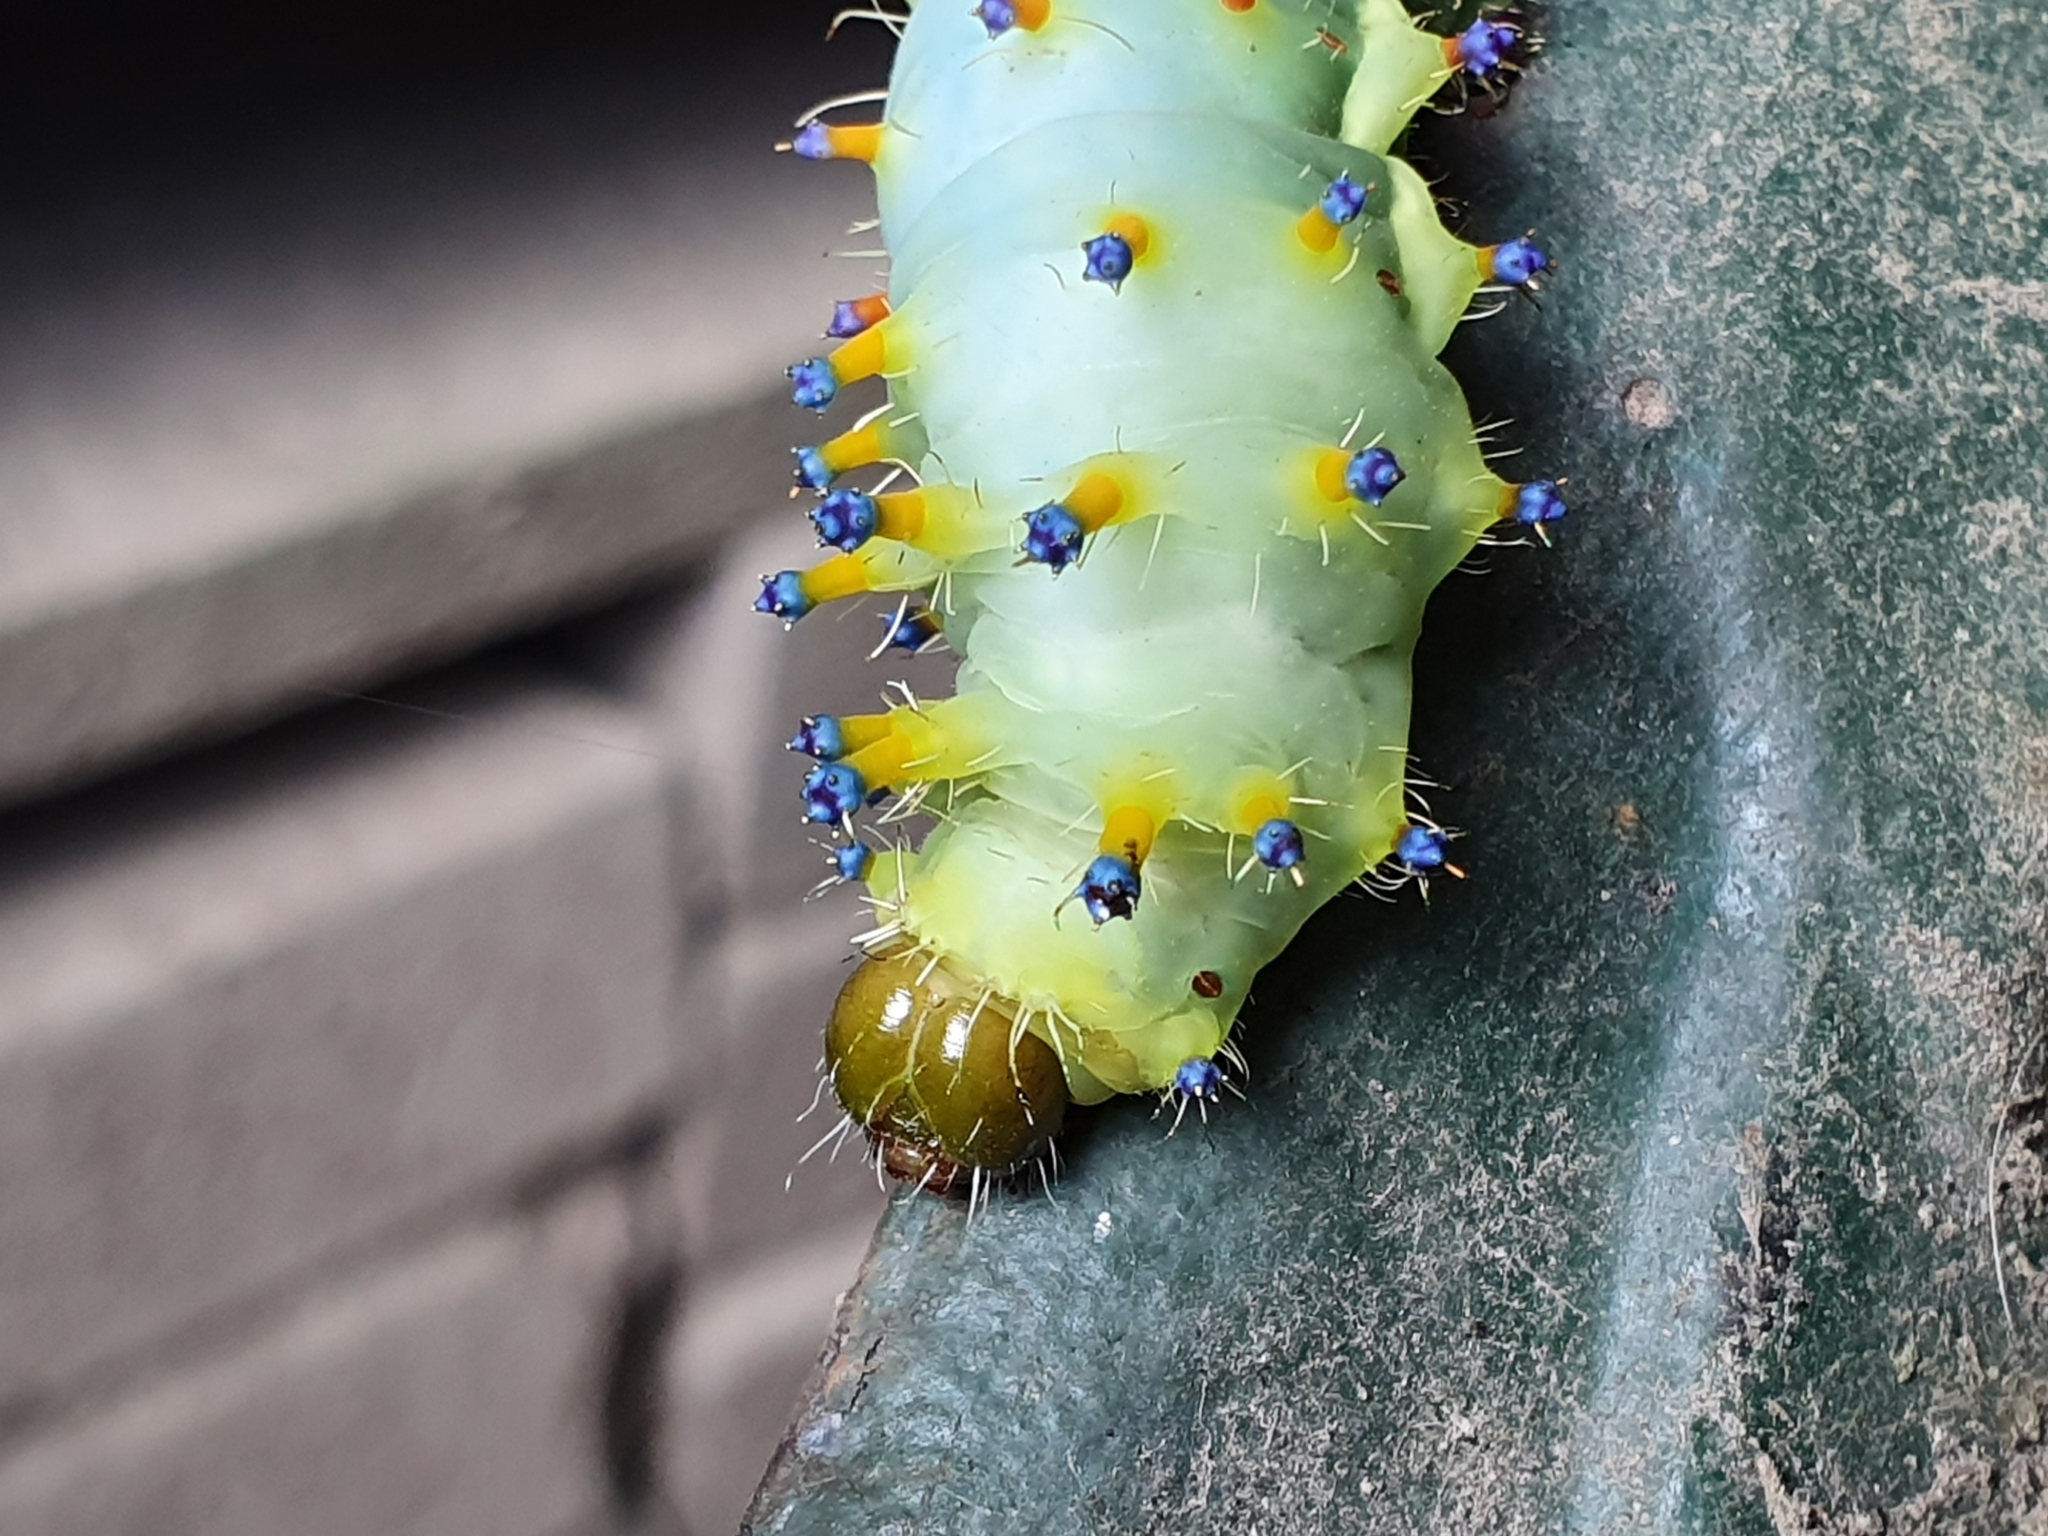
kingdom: Animalia
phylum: Arthropoda
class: Insecta
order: Lepidoptera
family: Saturniidae
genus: Opodiphthera
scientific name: Opodiphthera
